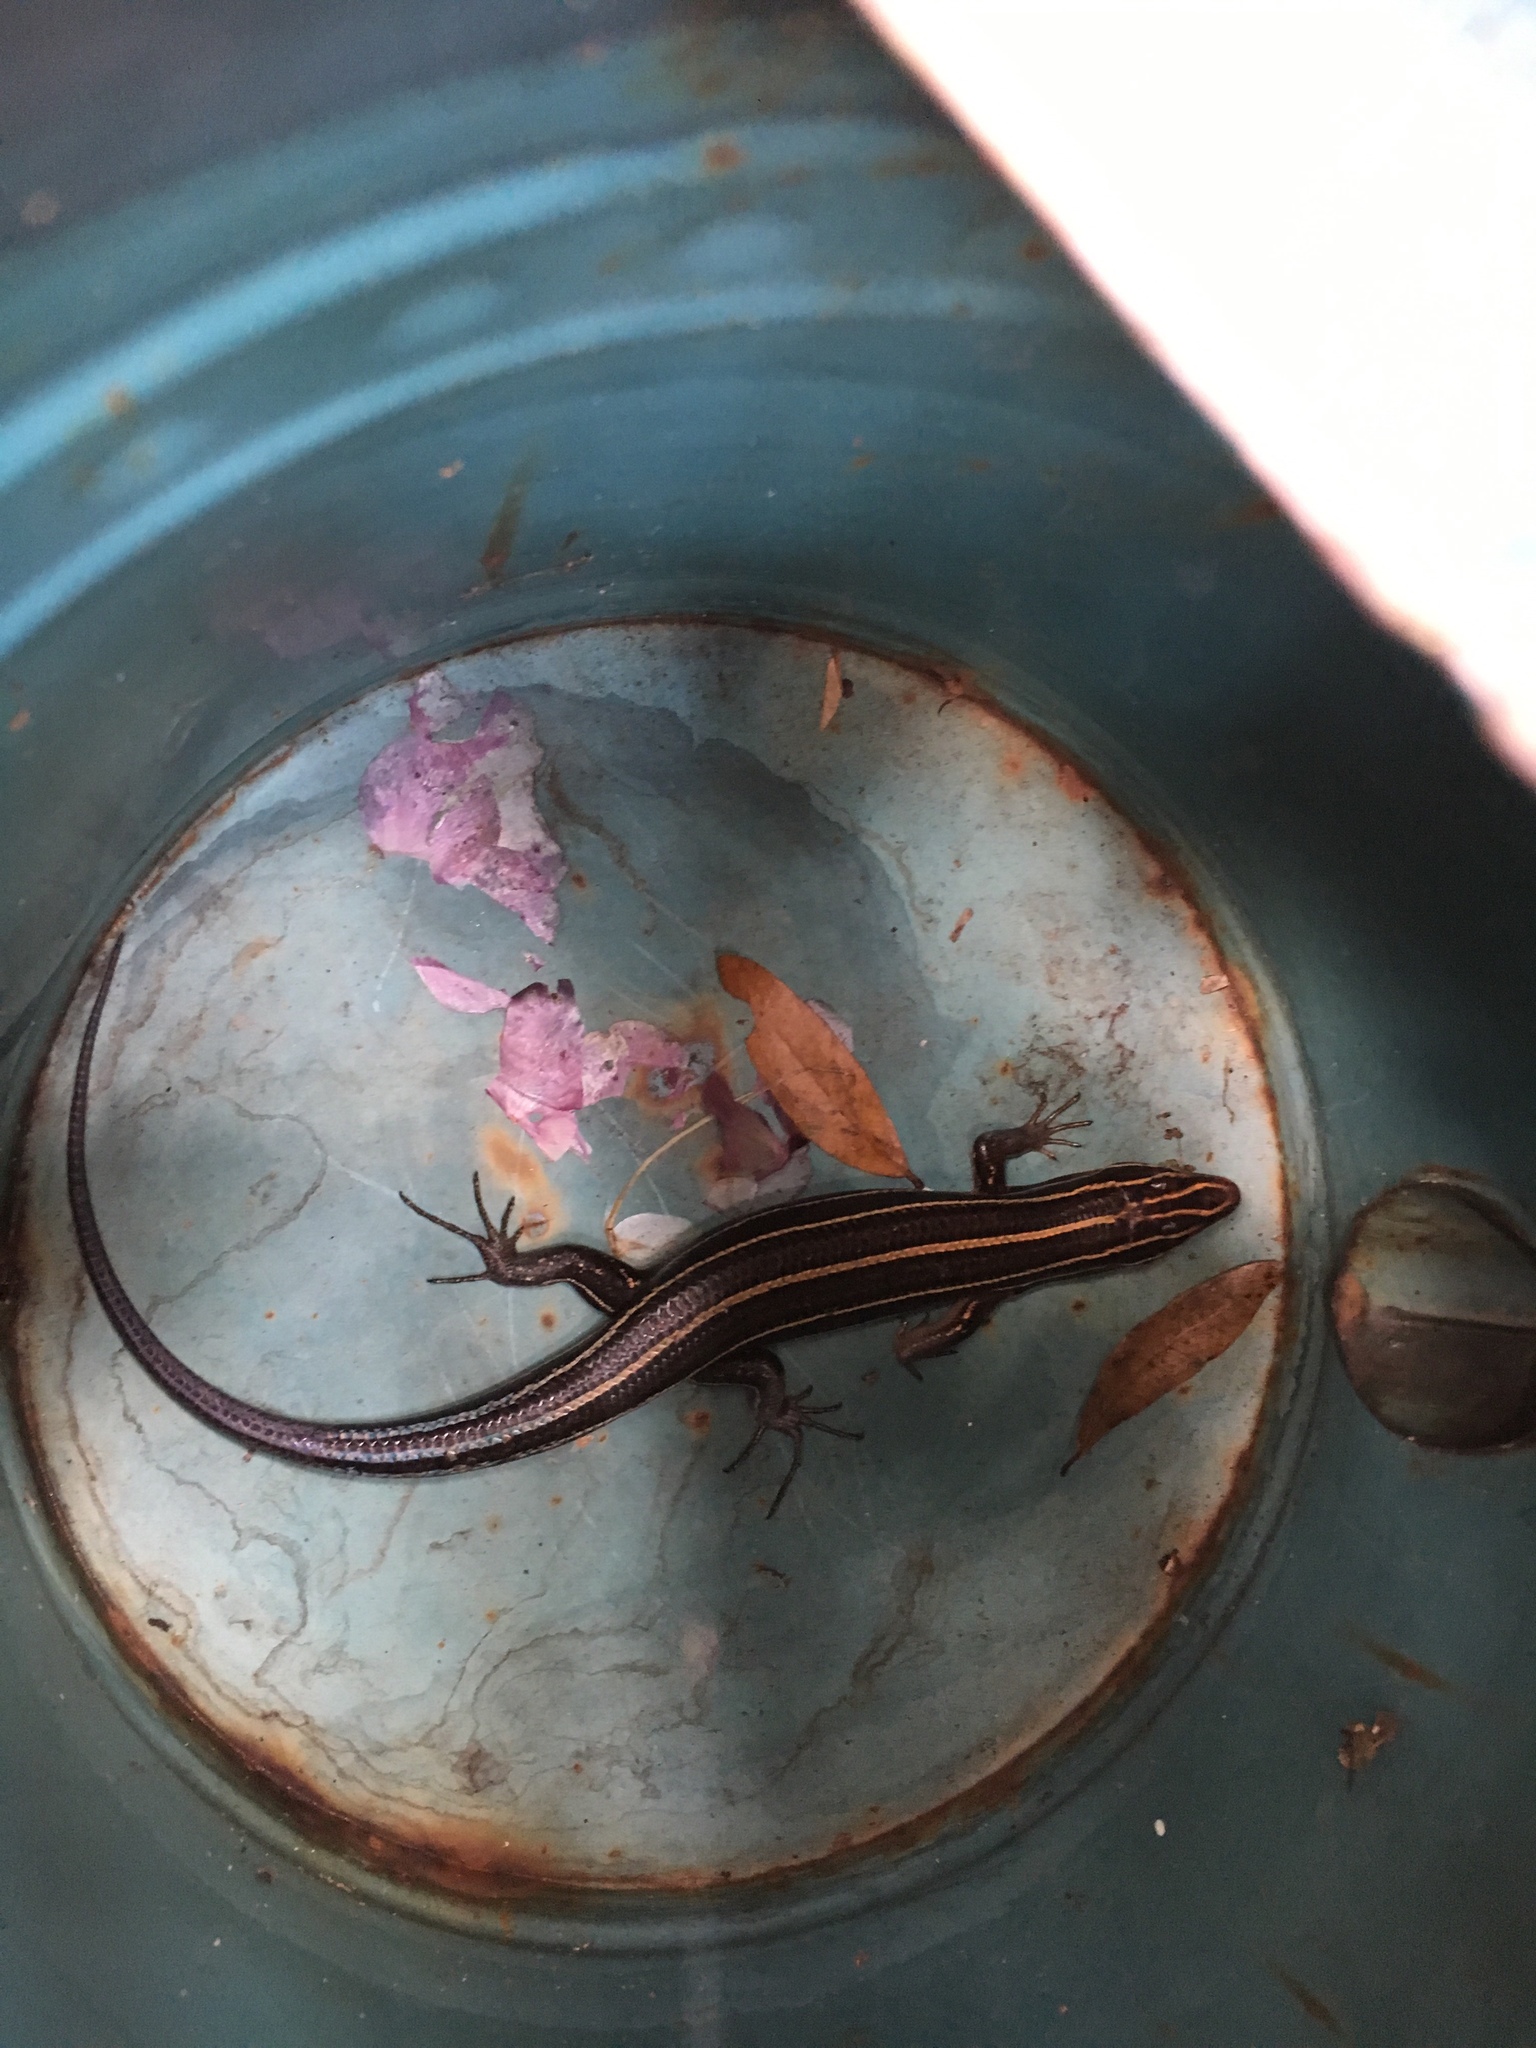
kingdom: Animalia
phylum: Chordata
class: Squamata
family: Scincidae
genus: Plestiodon
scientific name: Plestiodon
